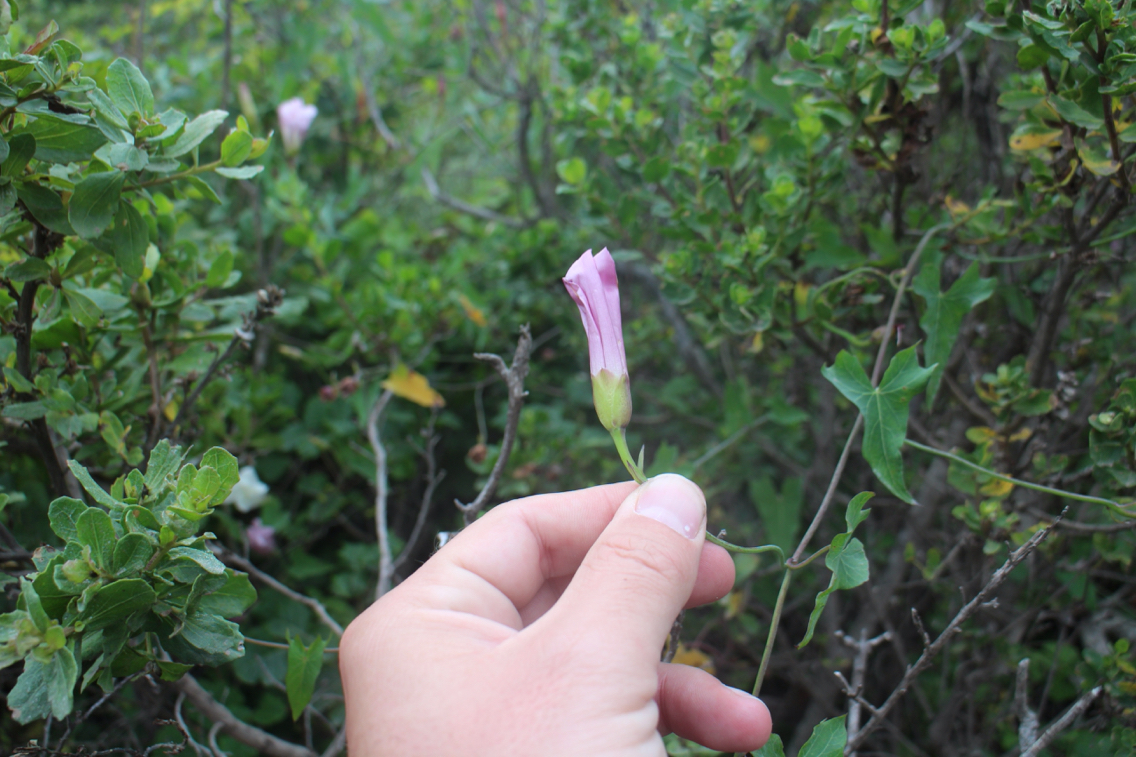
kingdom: Plantae
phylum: Tracheophyta
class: Magnoliopsida
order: Solanales
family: Convolvulaceae
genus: Calystegia
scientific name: Calystegia purpurata
